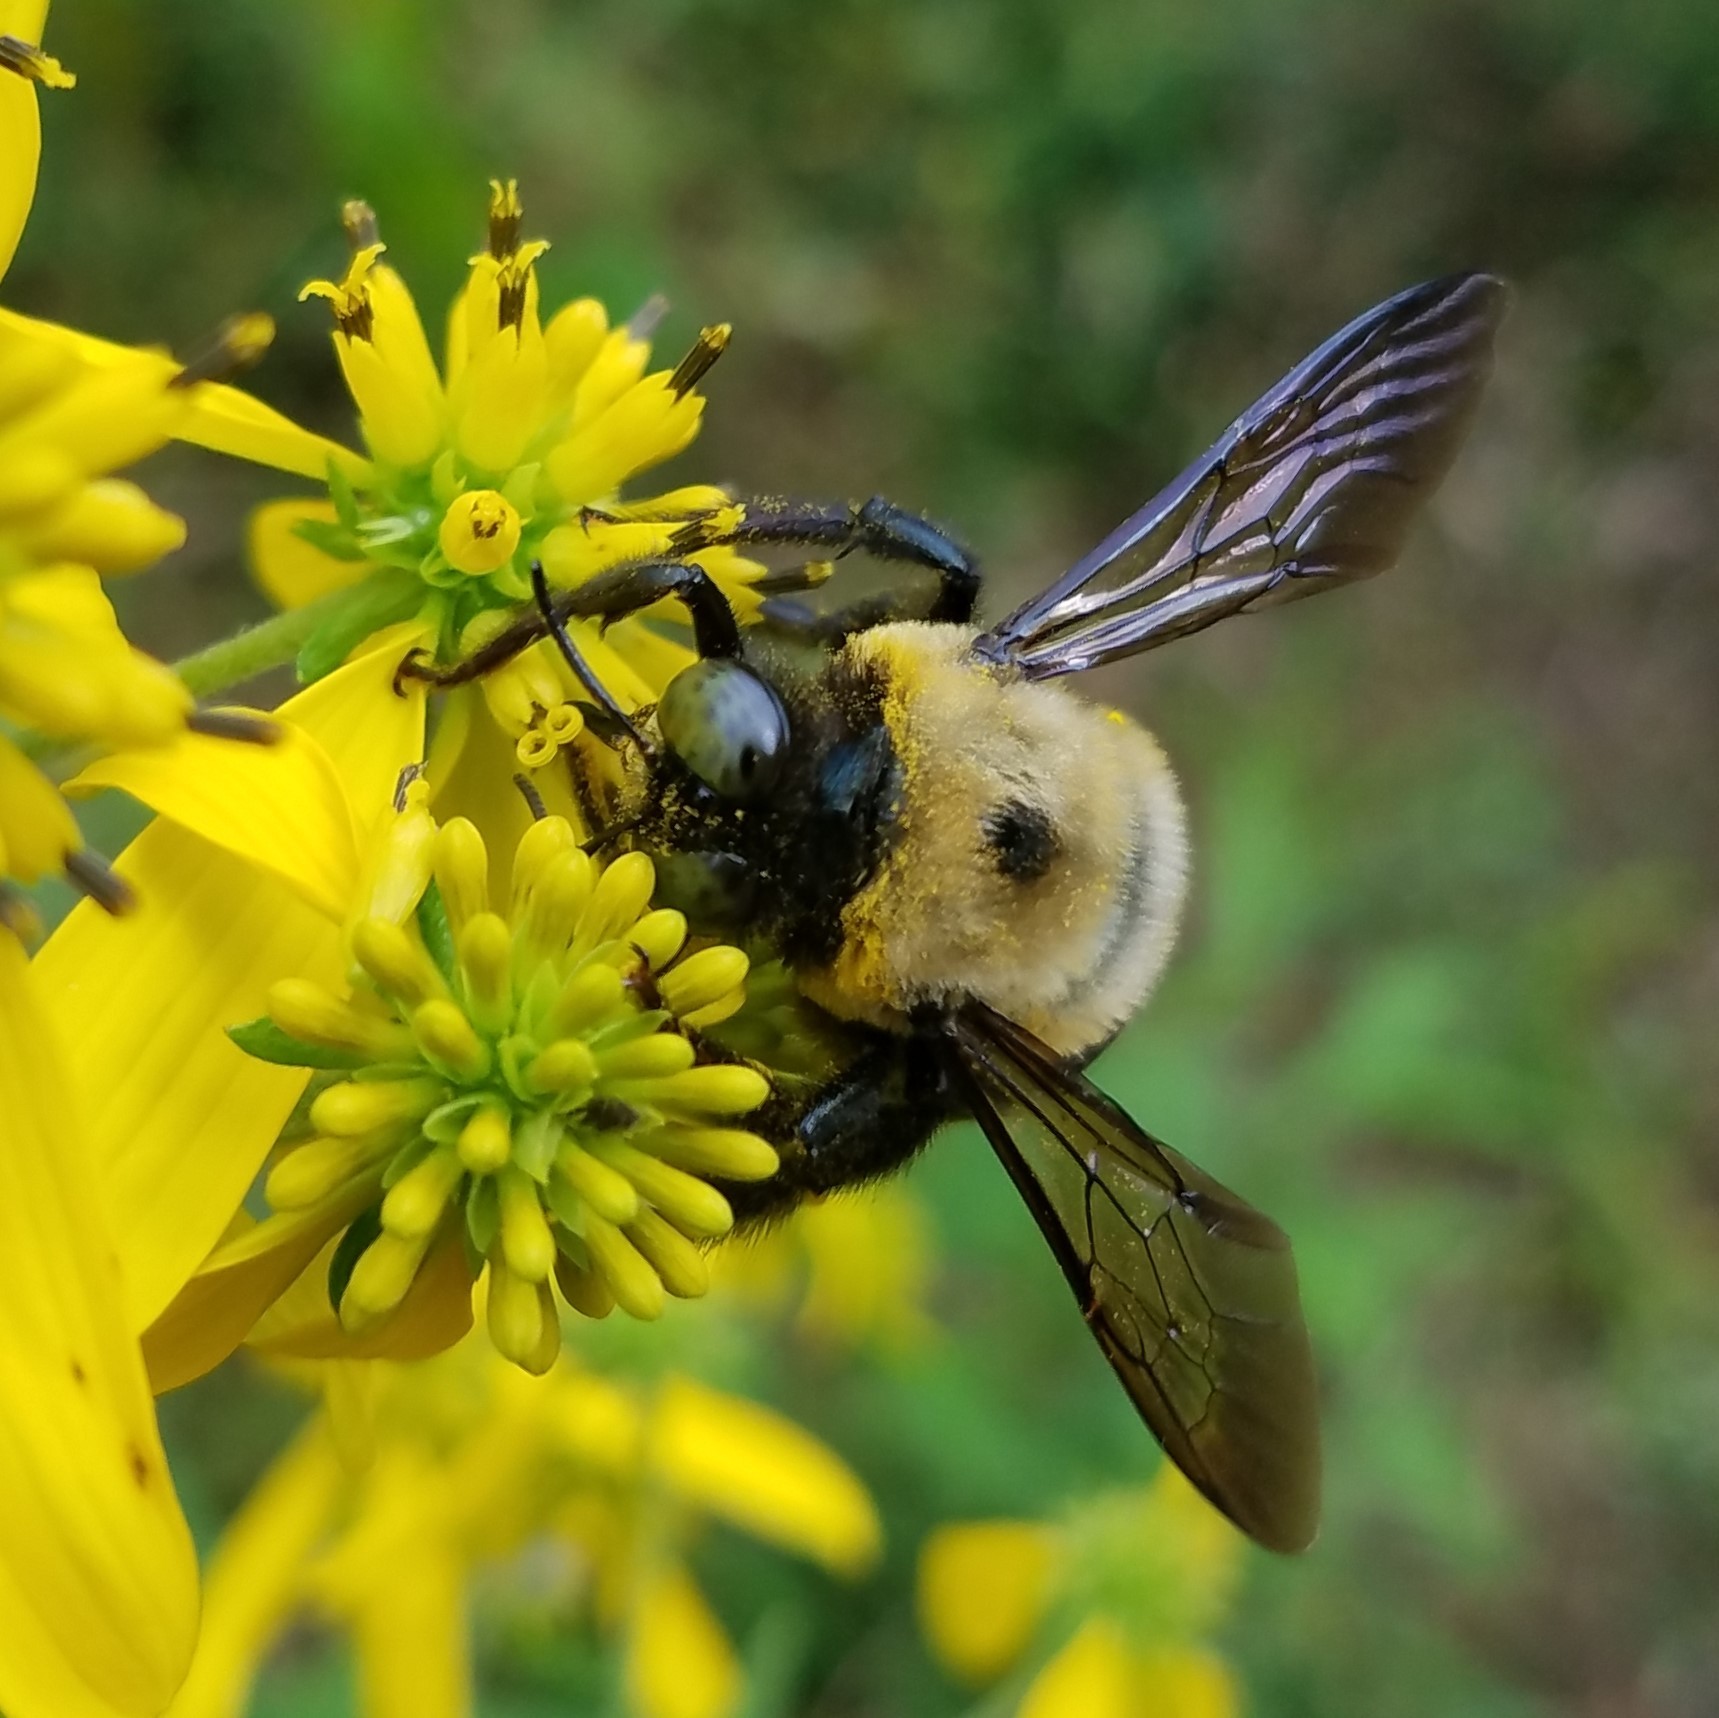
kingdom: Animalia
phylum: Arthropoda
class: Insecta
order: Hymenoptera
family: Apidae
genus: Xylocopa
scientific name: Xylocopa virginica
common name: Carpenter bee
